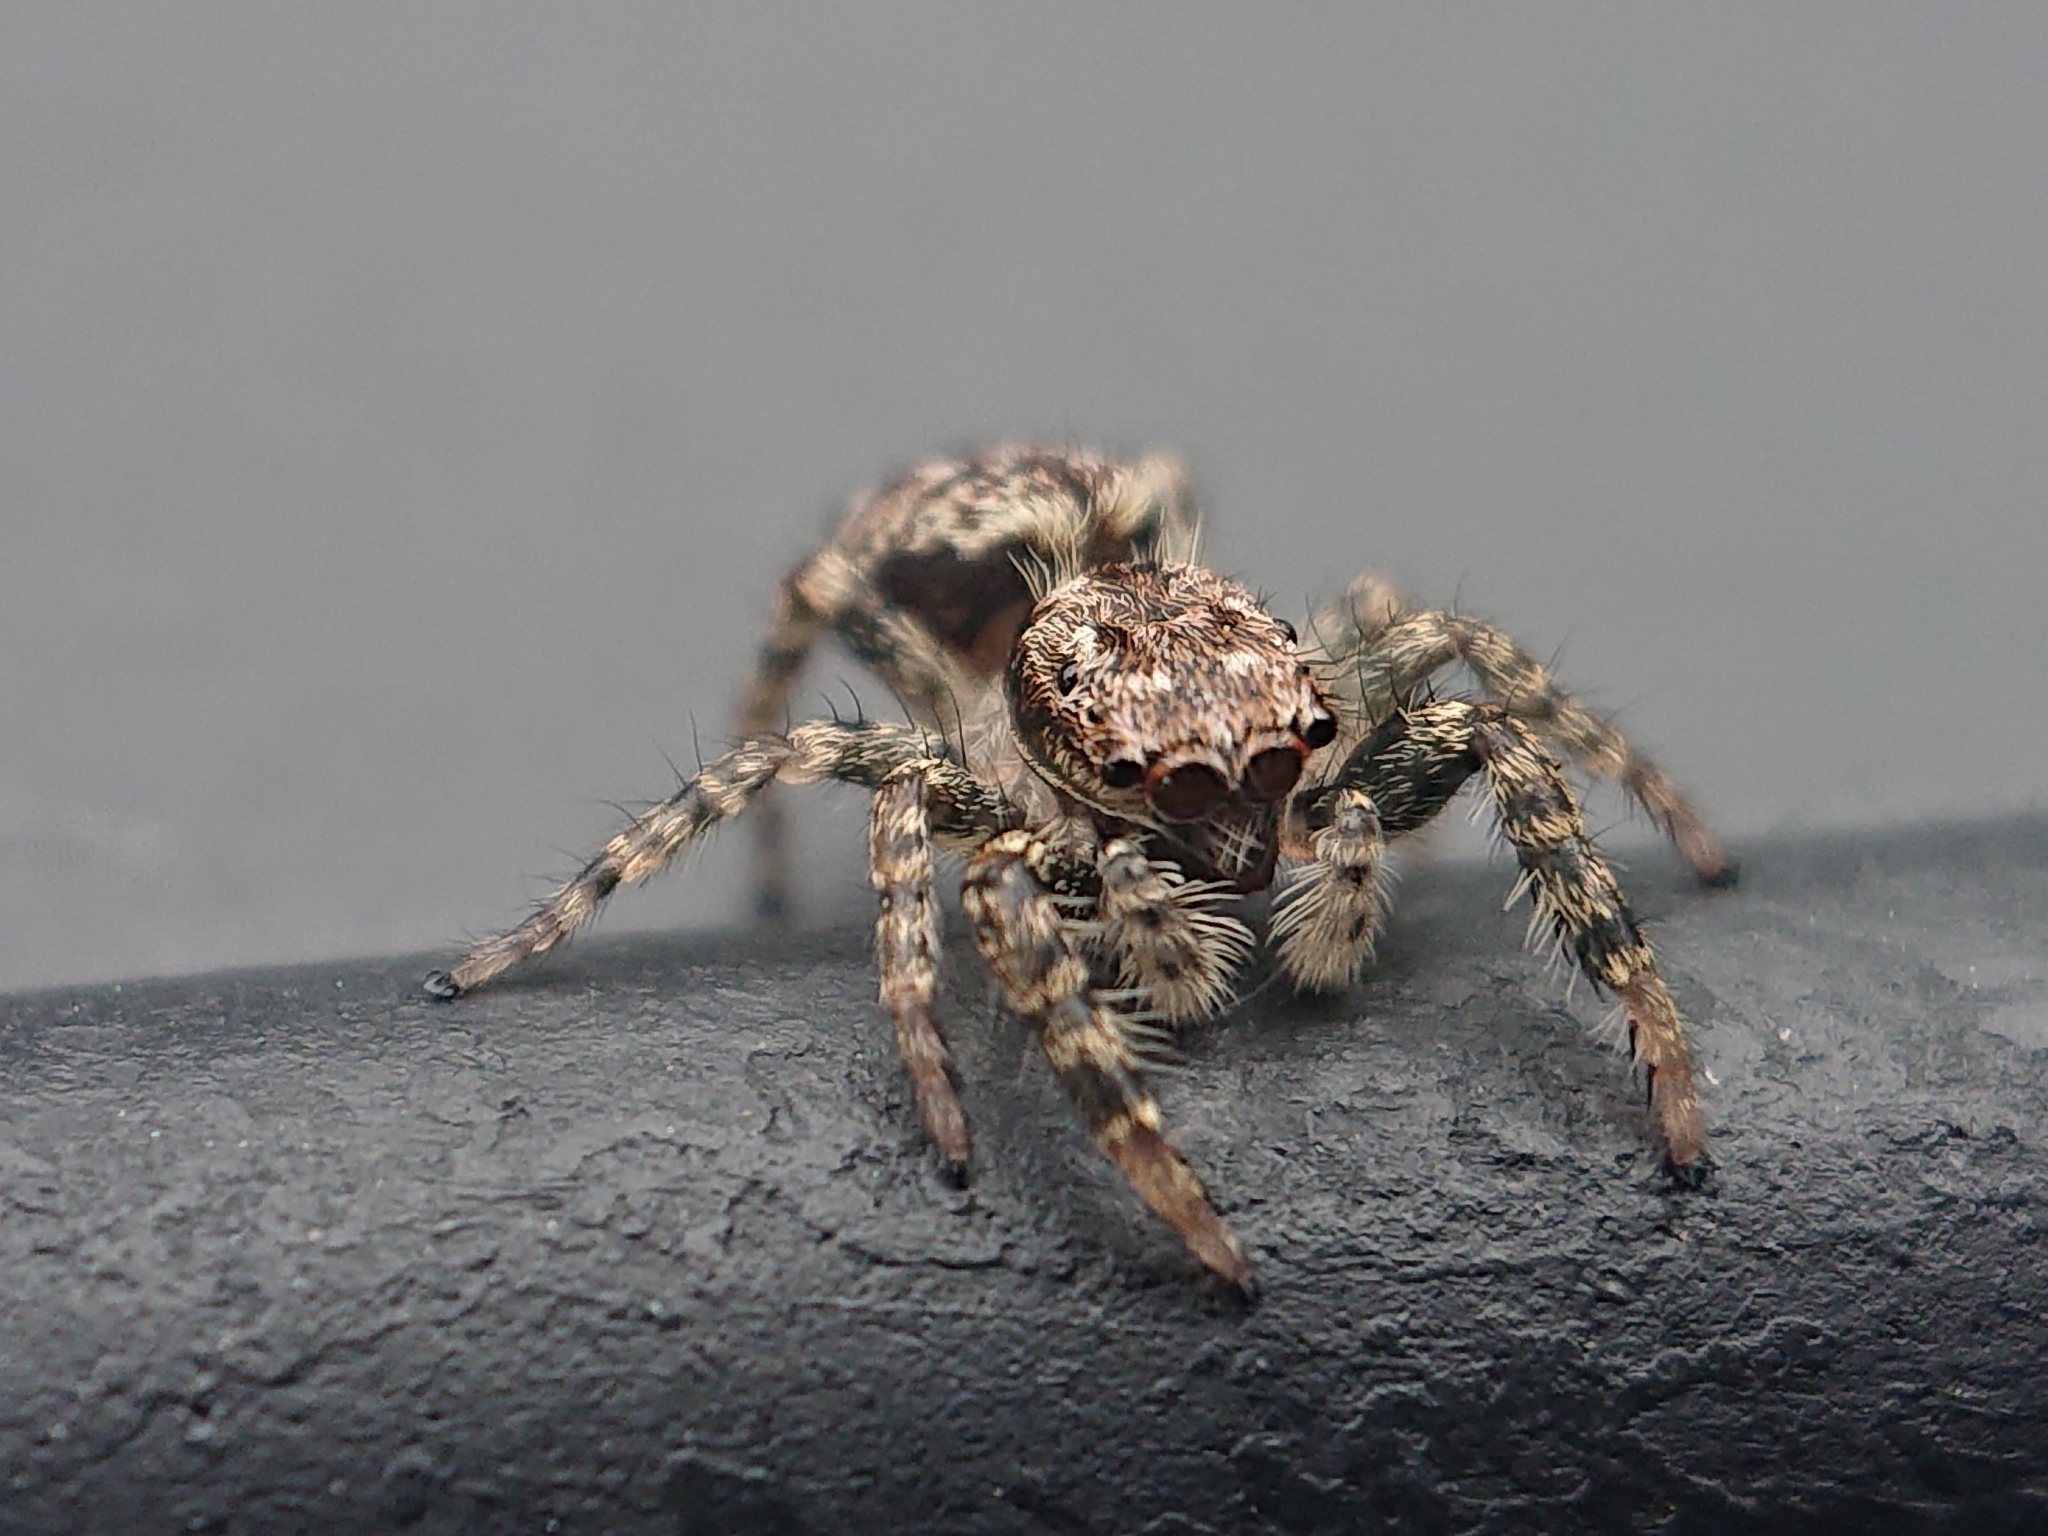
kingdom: Animalia
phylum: Arthropoda
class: Arachnida
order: Araneae
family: Salticidae
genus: Marpissa
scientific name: Marpissa muscosa
